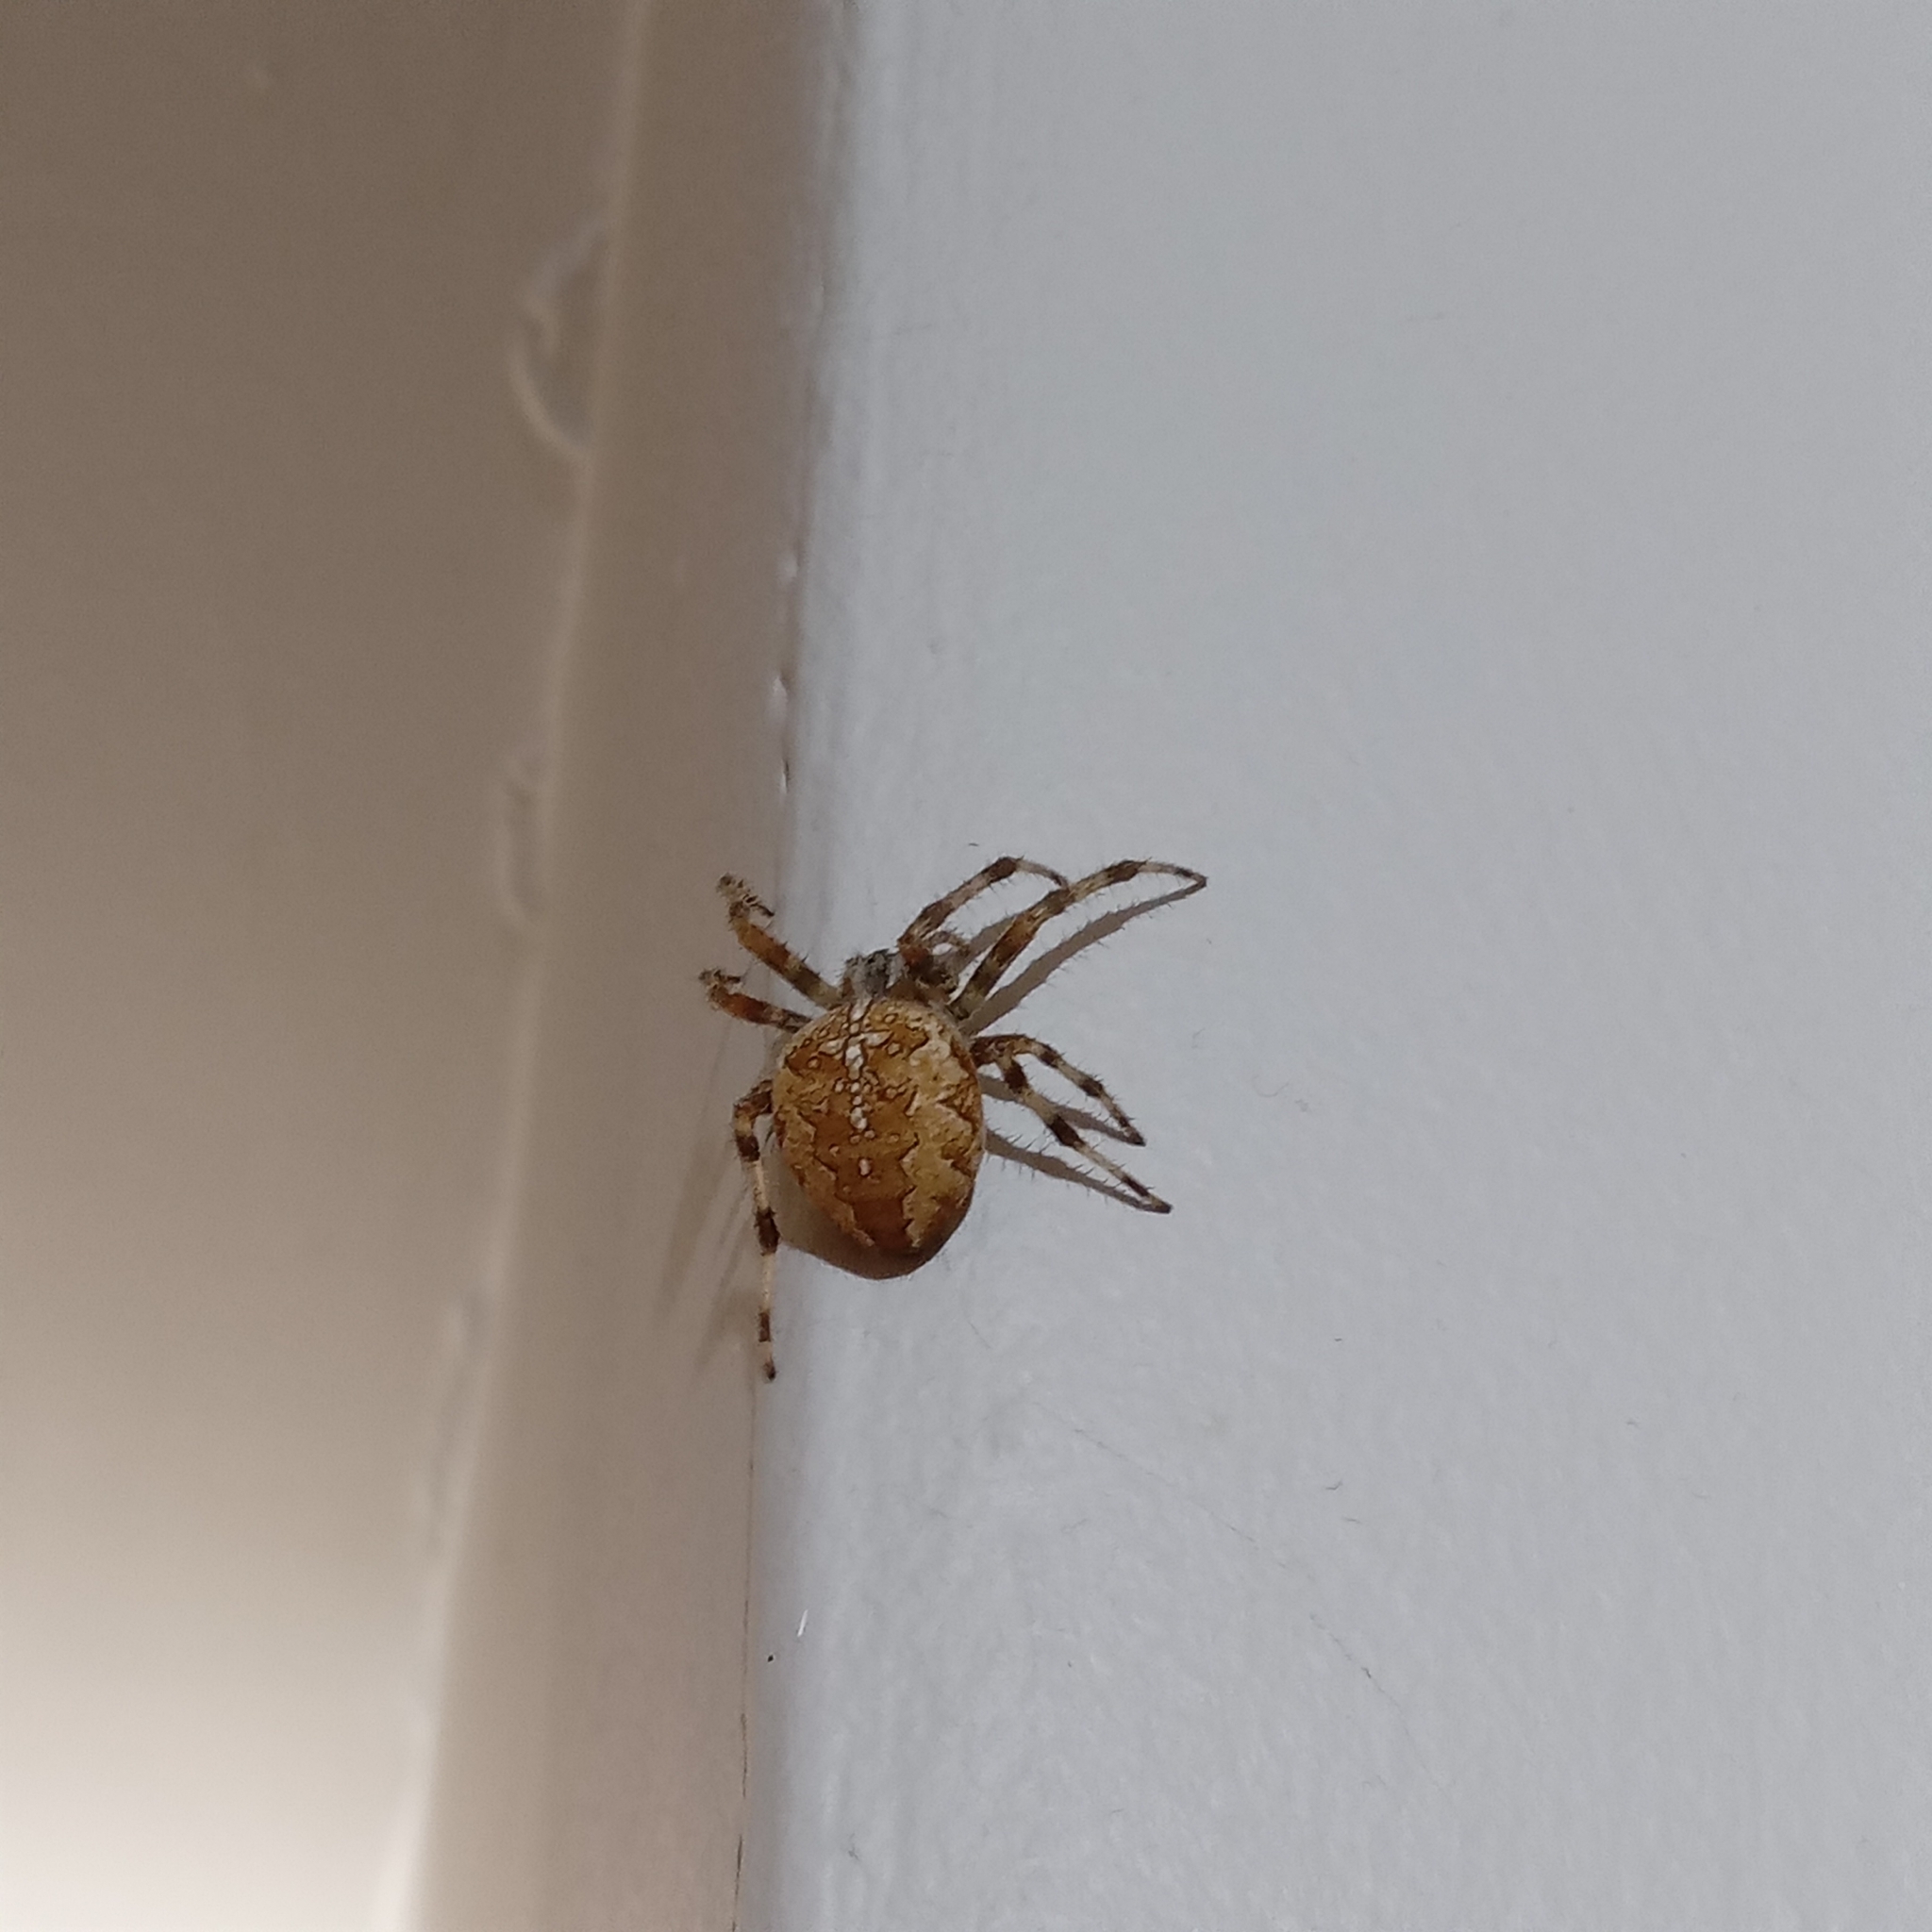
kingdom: Animalia
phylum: Arthropoda
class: Arachnida
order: Araneae
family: Araneidae
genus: Araneus
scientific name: Araneus diadematus
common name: Cross orbweaver
